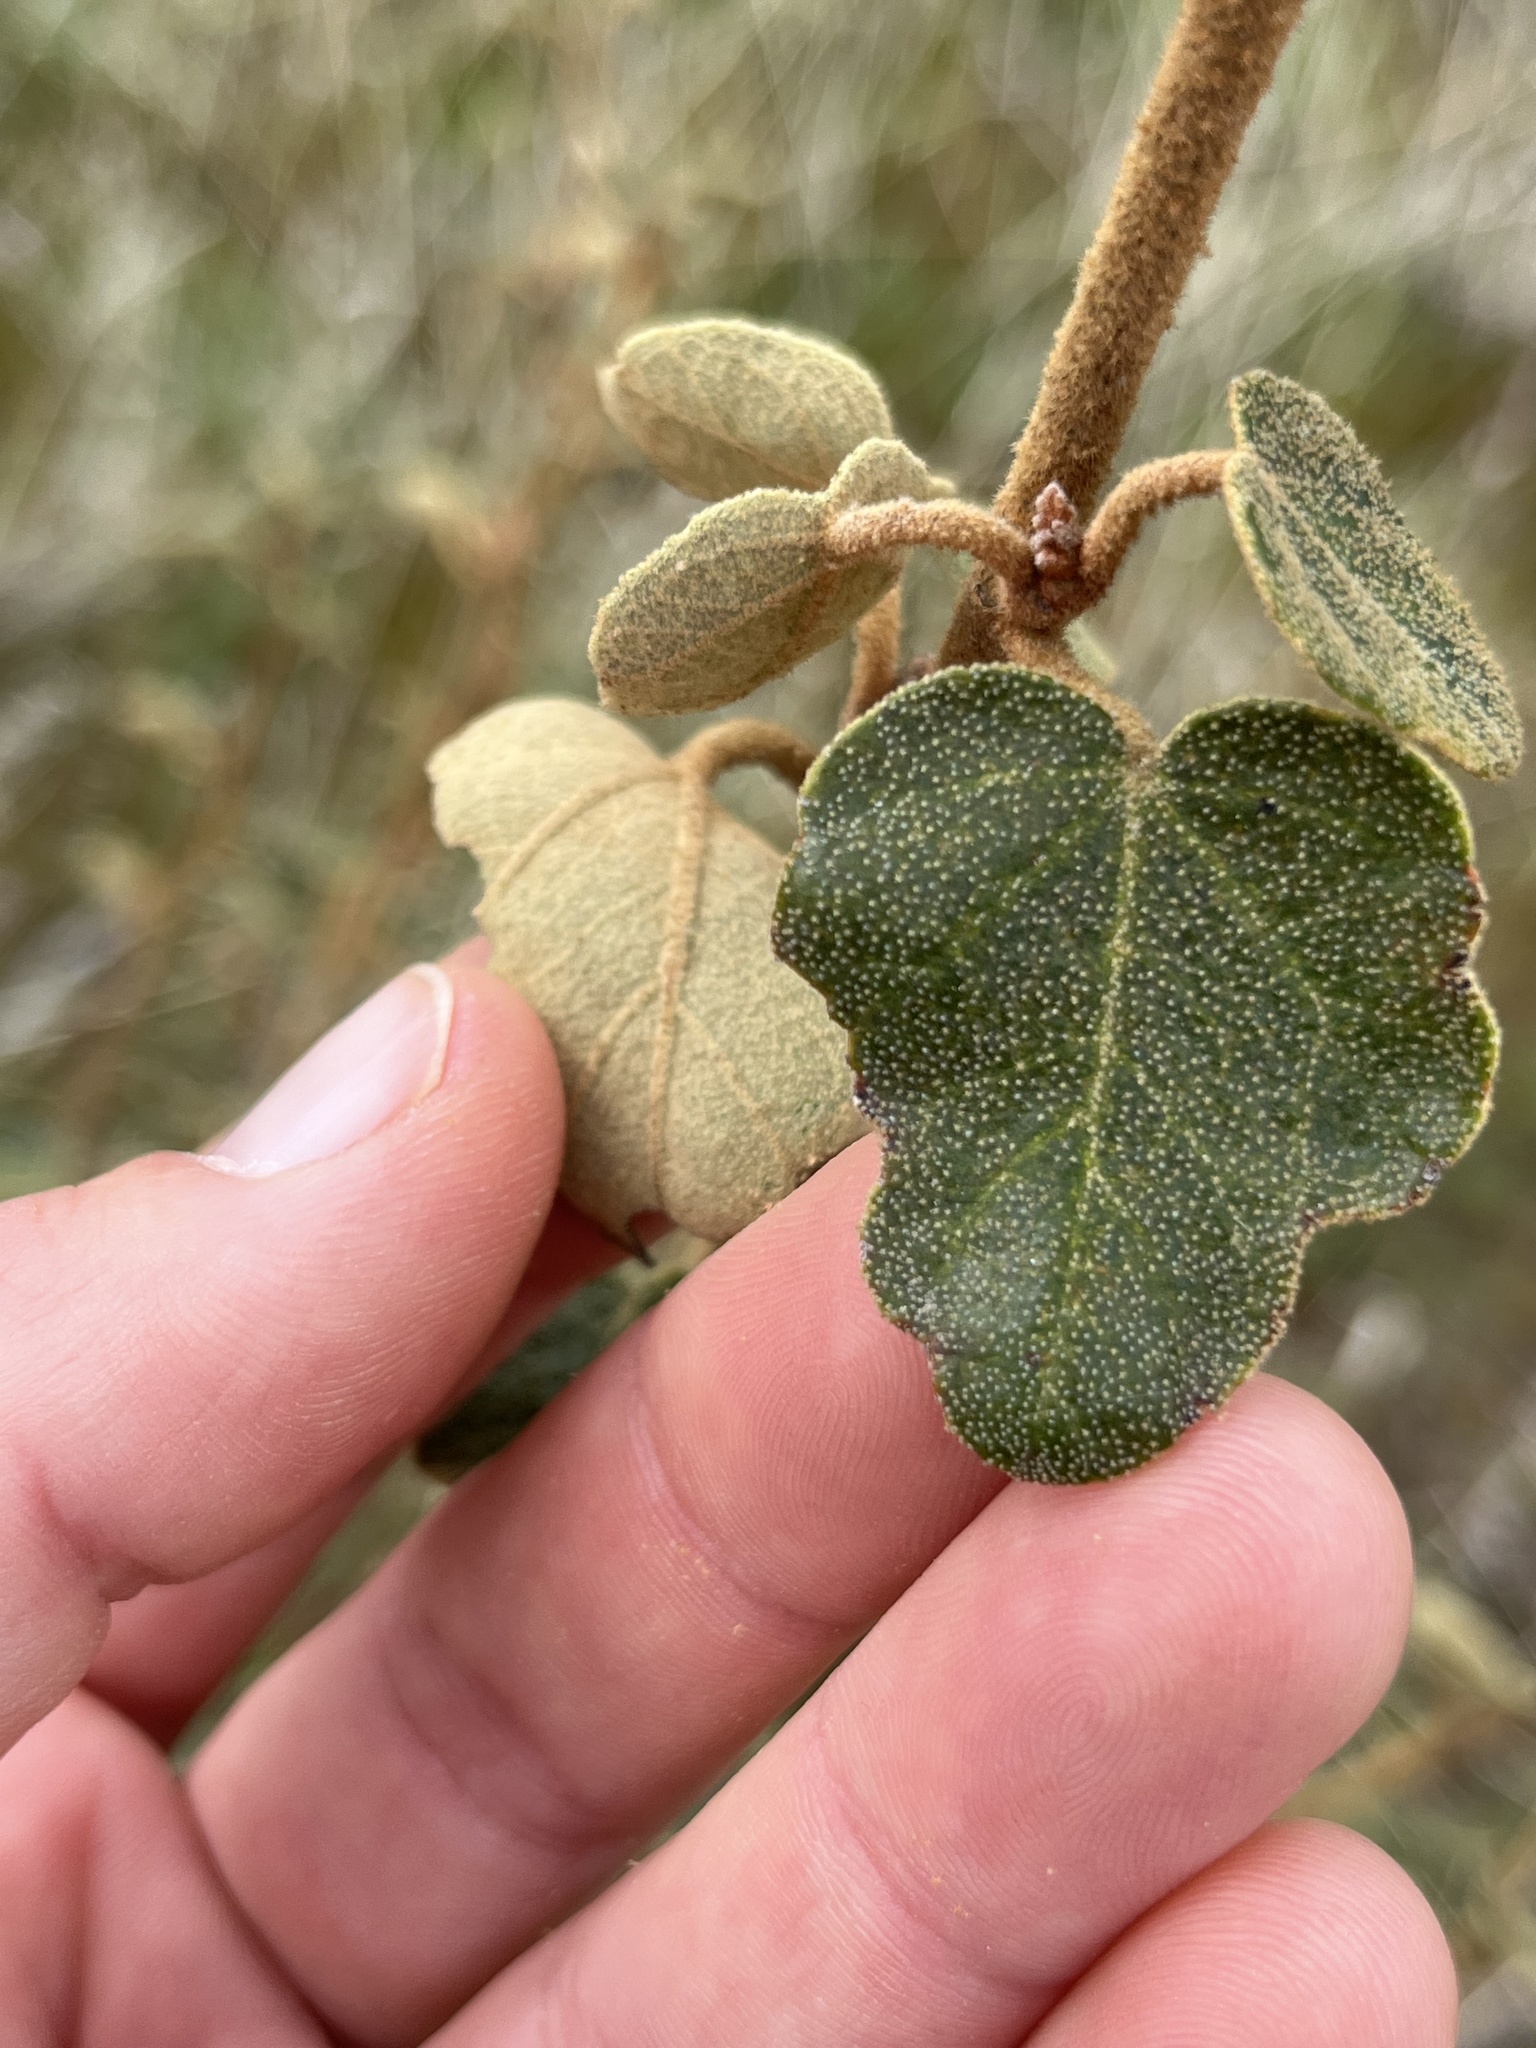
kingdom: Plantae
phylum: Tracheophyta
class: Magnoliopsida
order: Malvales
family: Malvaceae
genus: Fremontodendron
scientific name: Fremontodendron californicum
